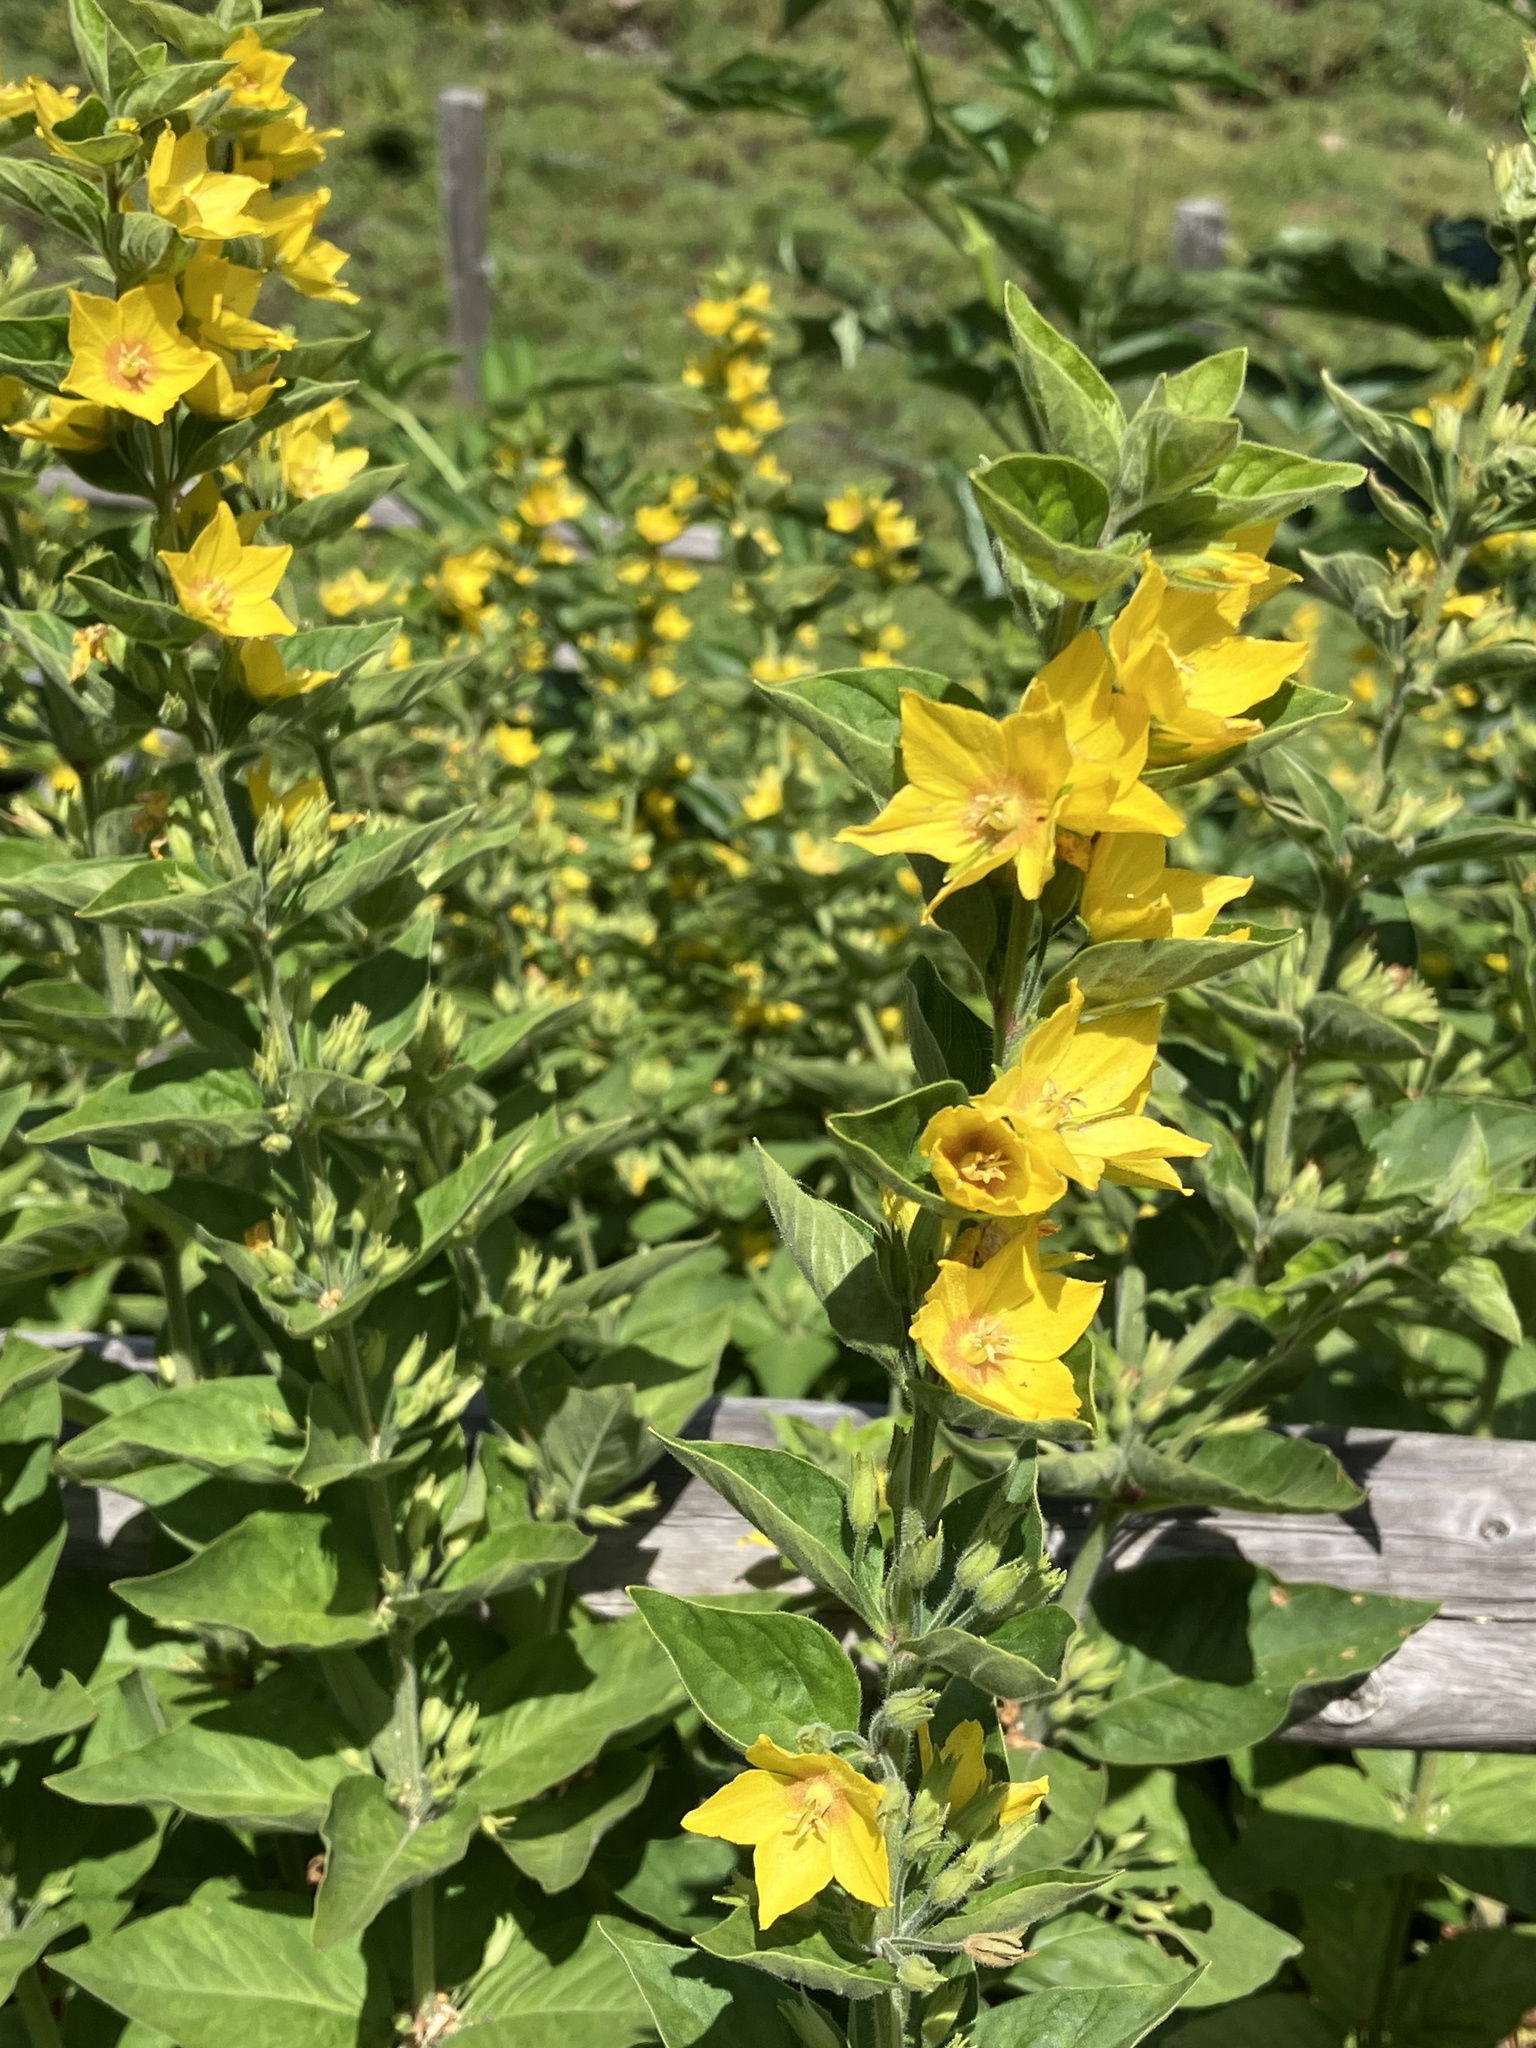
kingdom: Plantae
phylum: Tracheophyta
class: Magnoliopsida
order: Ericales
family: Primulaceae
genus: Lysimachia
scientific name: Lysimachia punctata
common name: Dotted loosestrife
